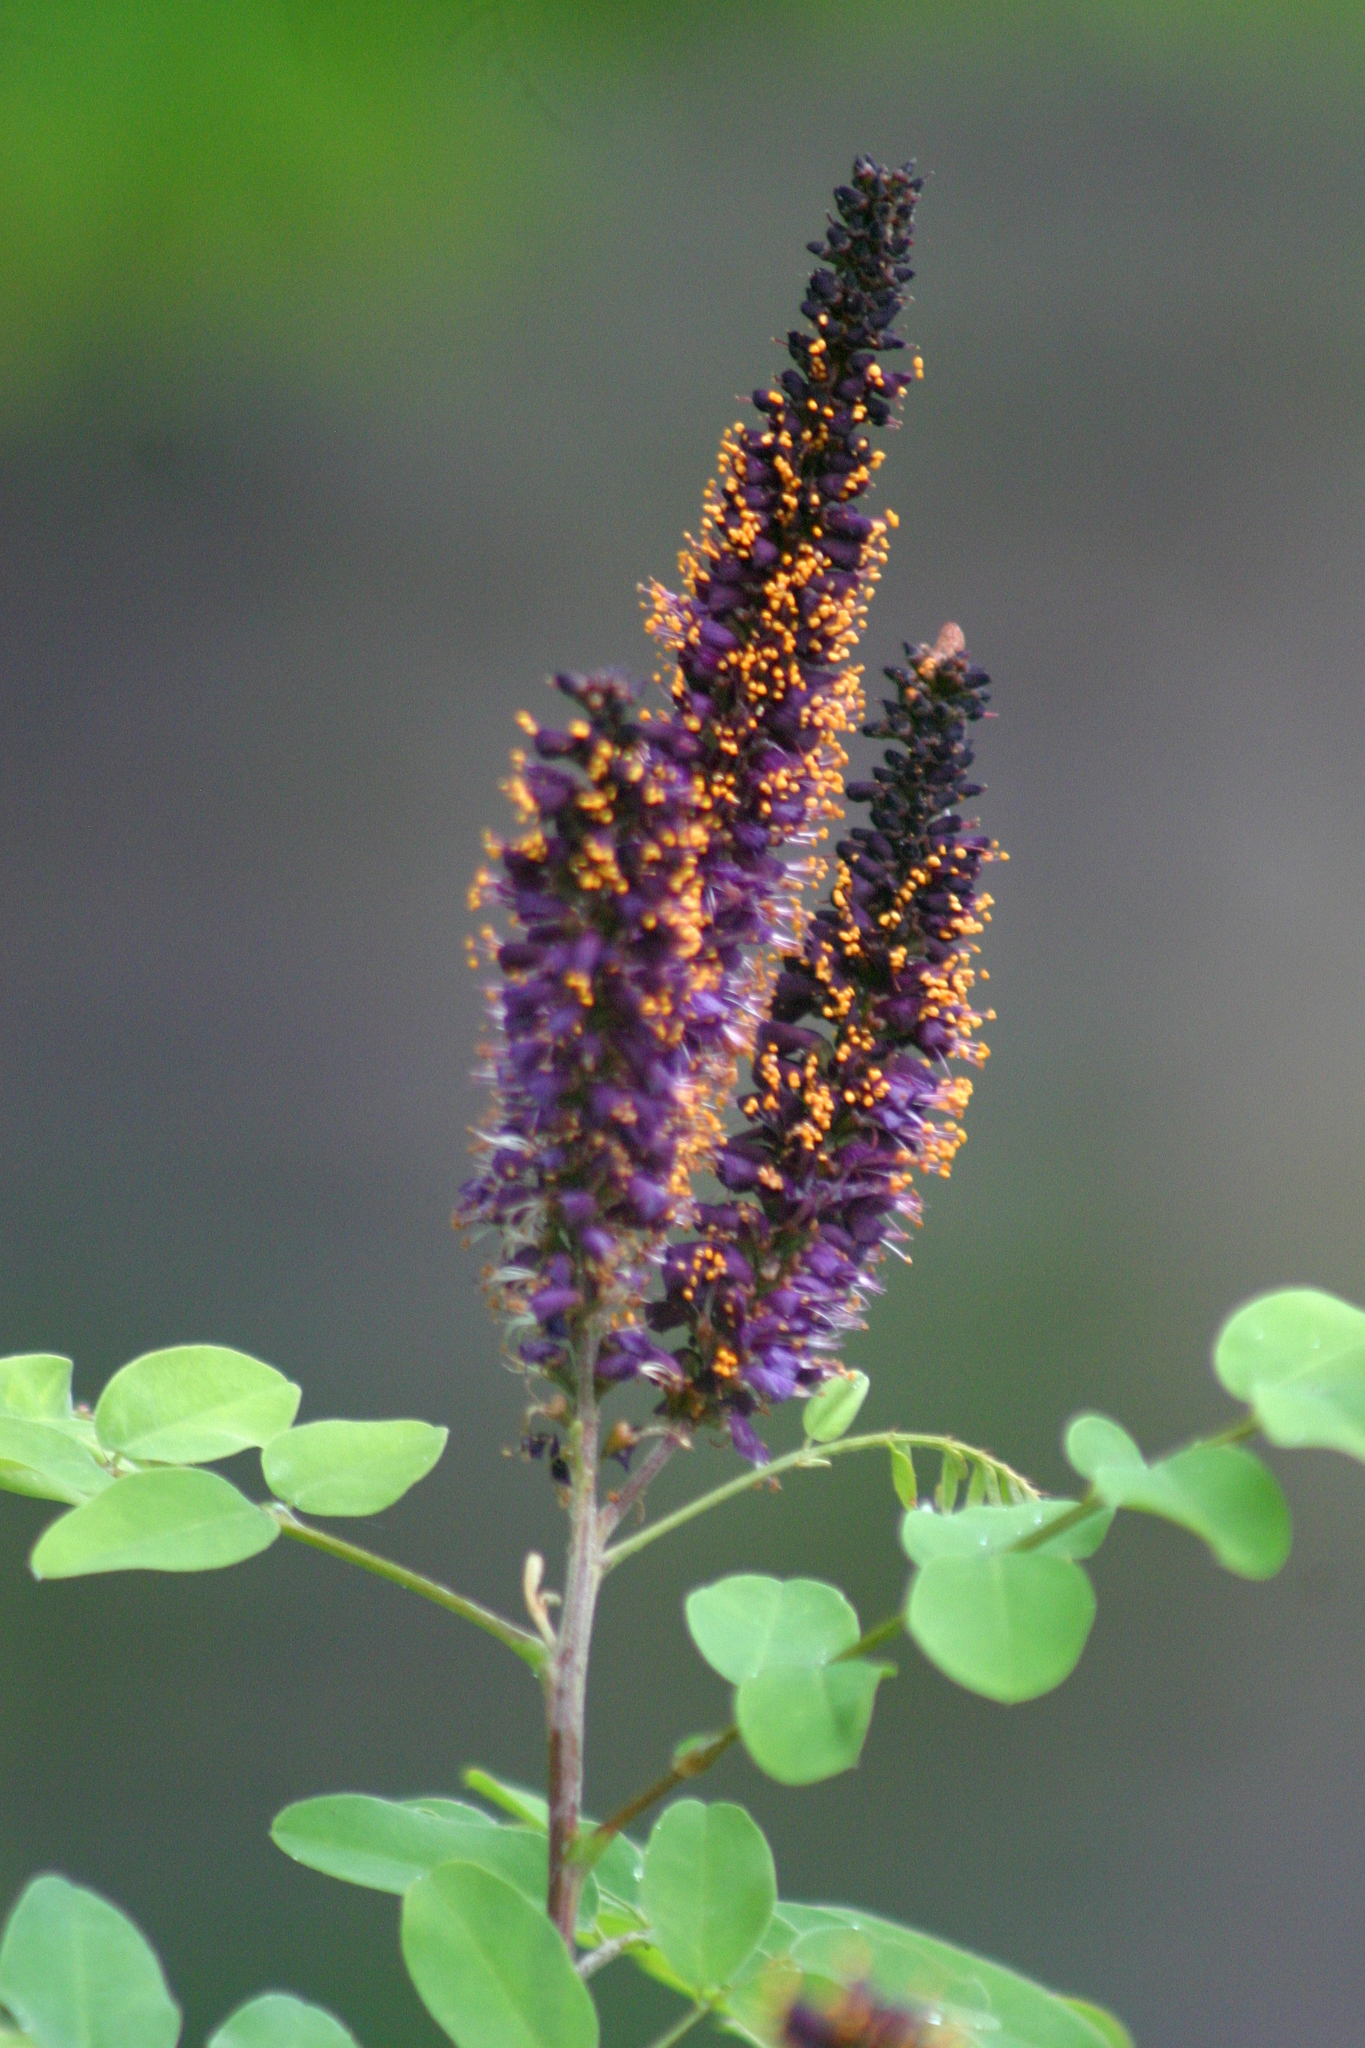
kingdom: Plantae
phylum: Tracheophyta
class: Magnoliopsida
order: Fabales
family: Fabaceae
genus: Amorpha
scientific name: Amorpha fruticosa
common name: False indigo
